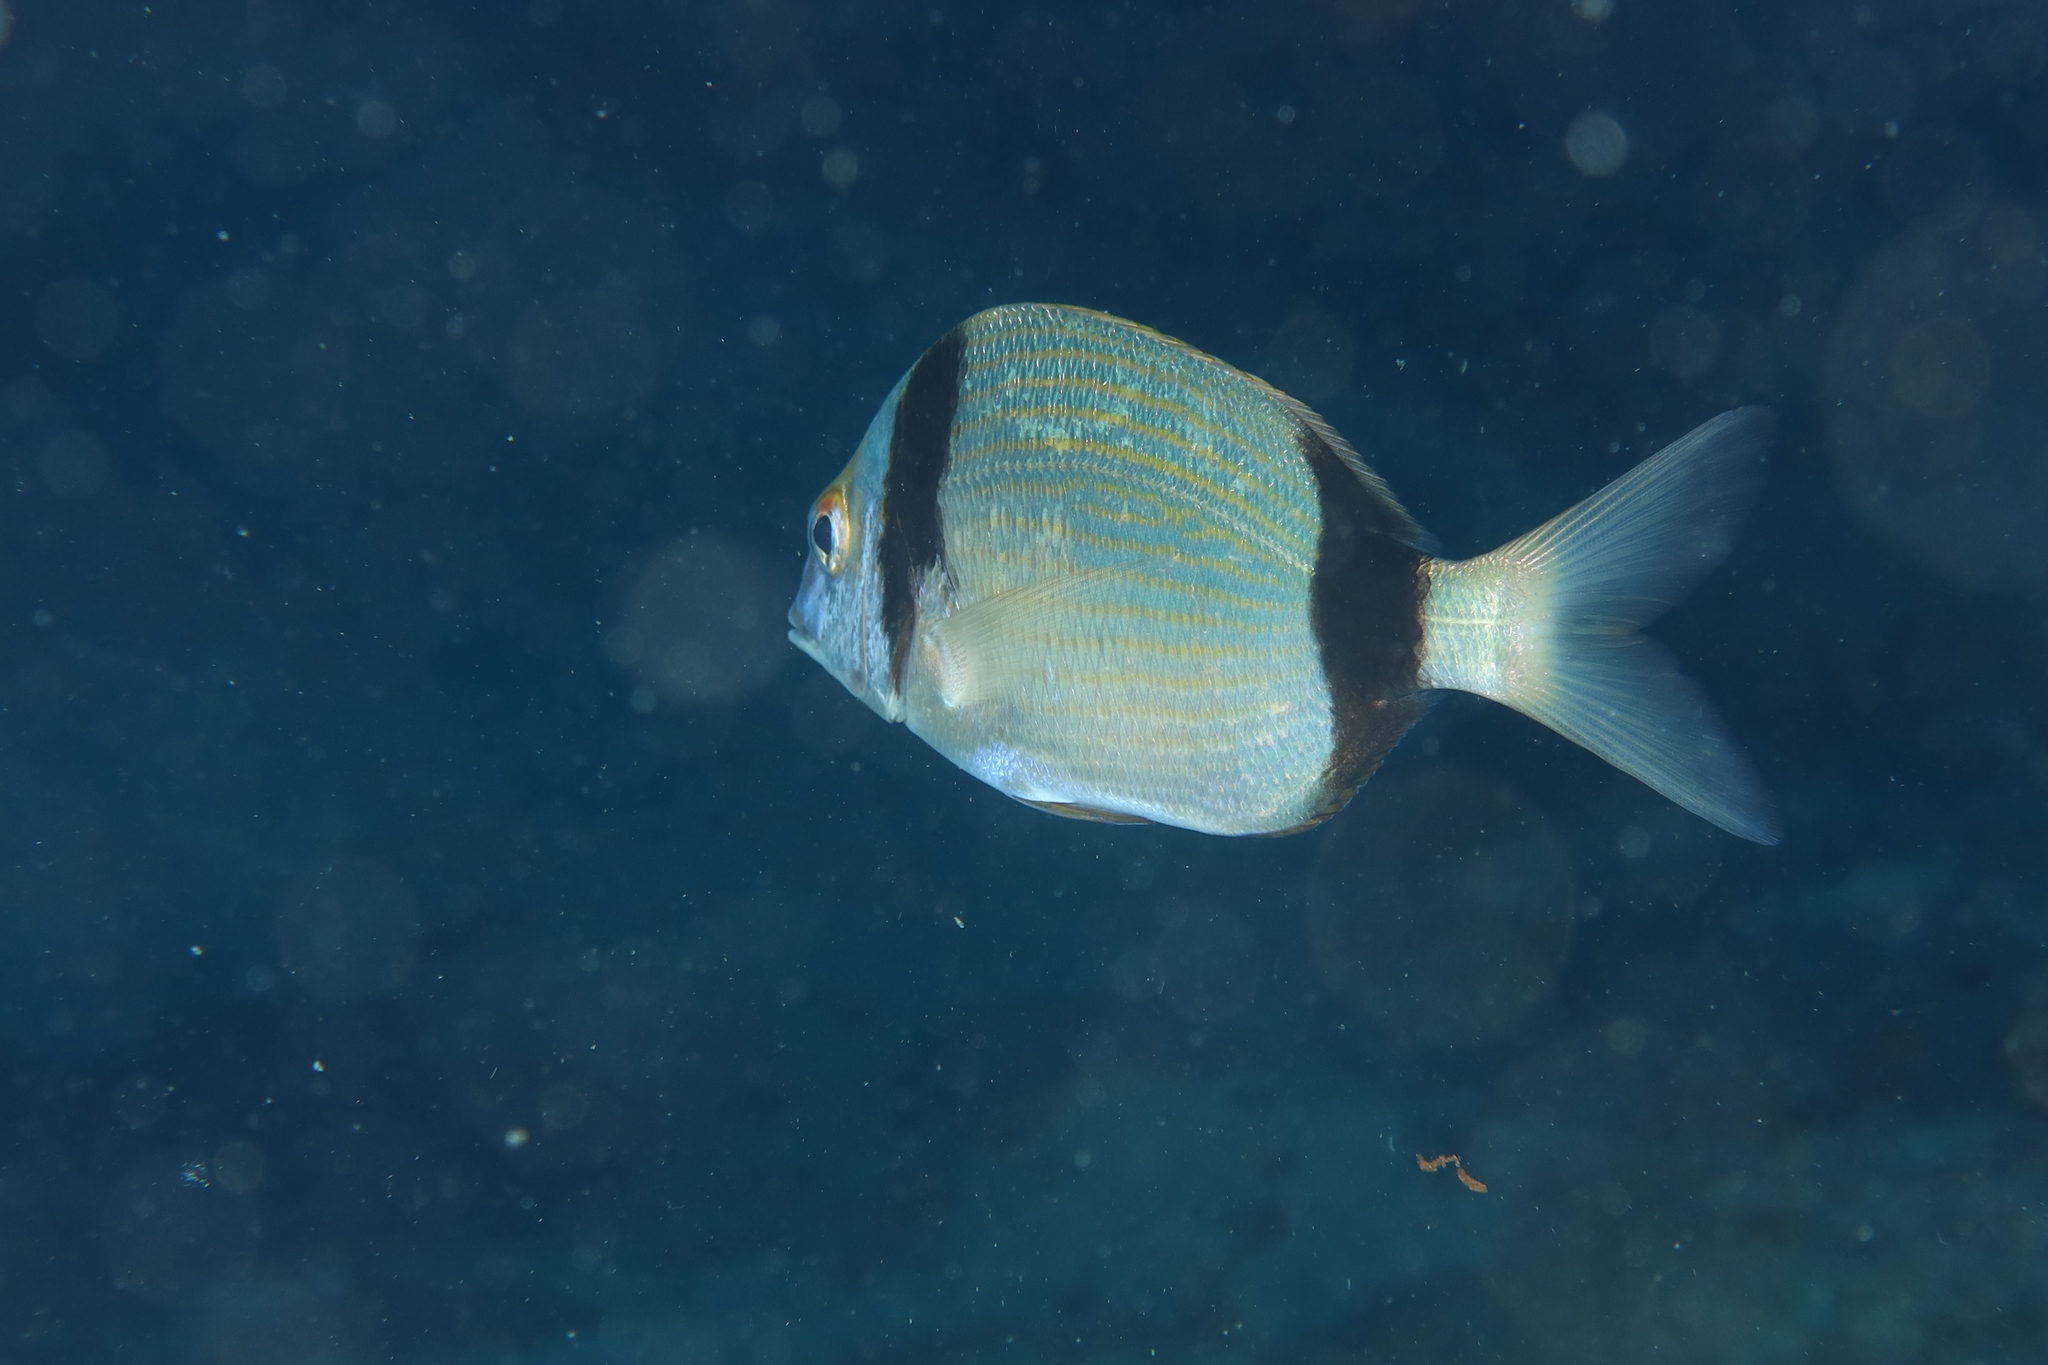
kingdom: Animalia
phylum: Chordata
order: Perciformes
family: Sparidae
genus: Diplodus
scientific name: Diplodus vulgaris
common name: Common two-banded seabream
